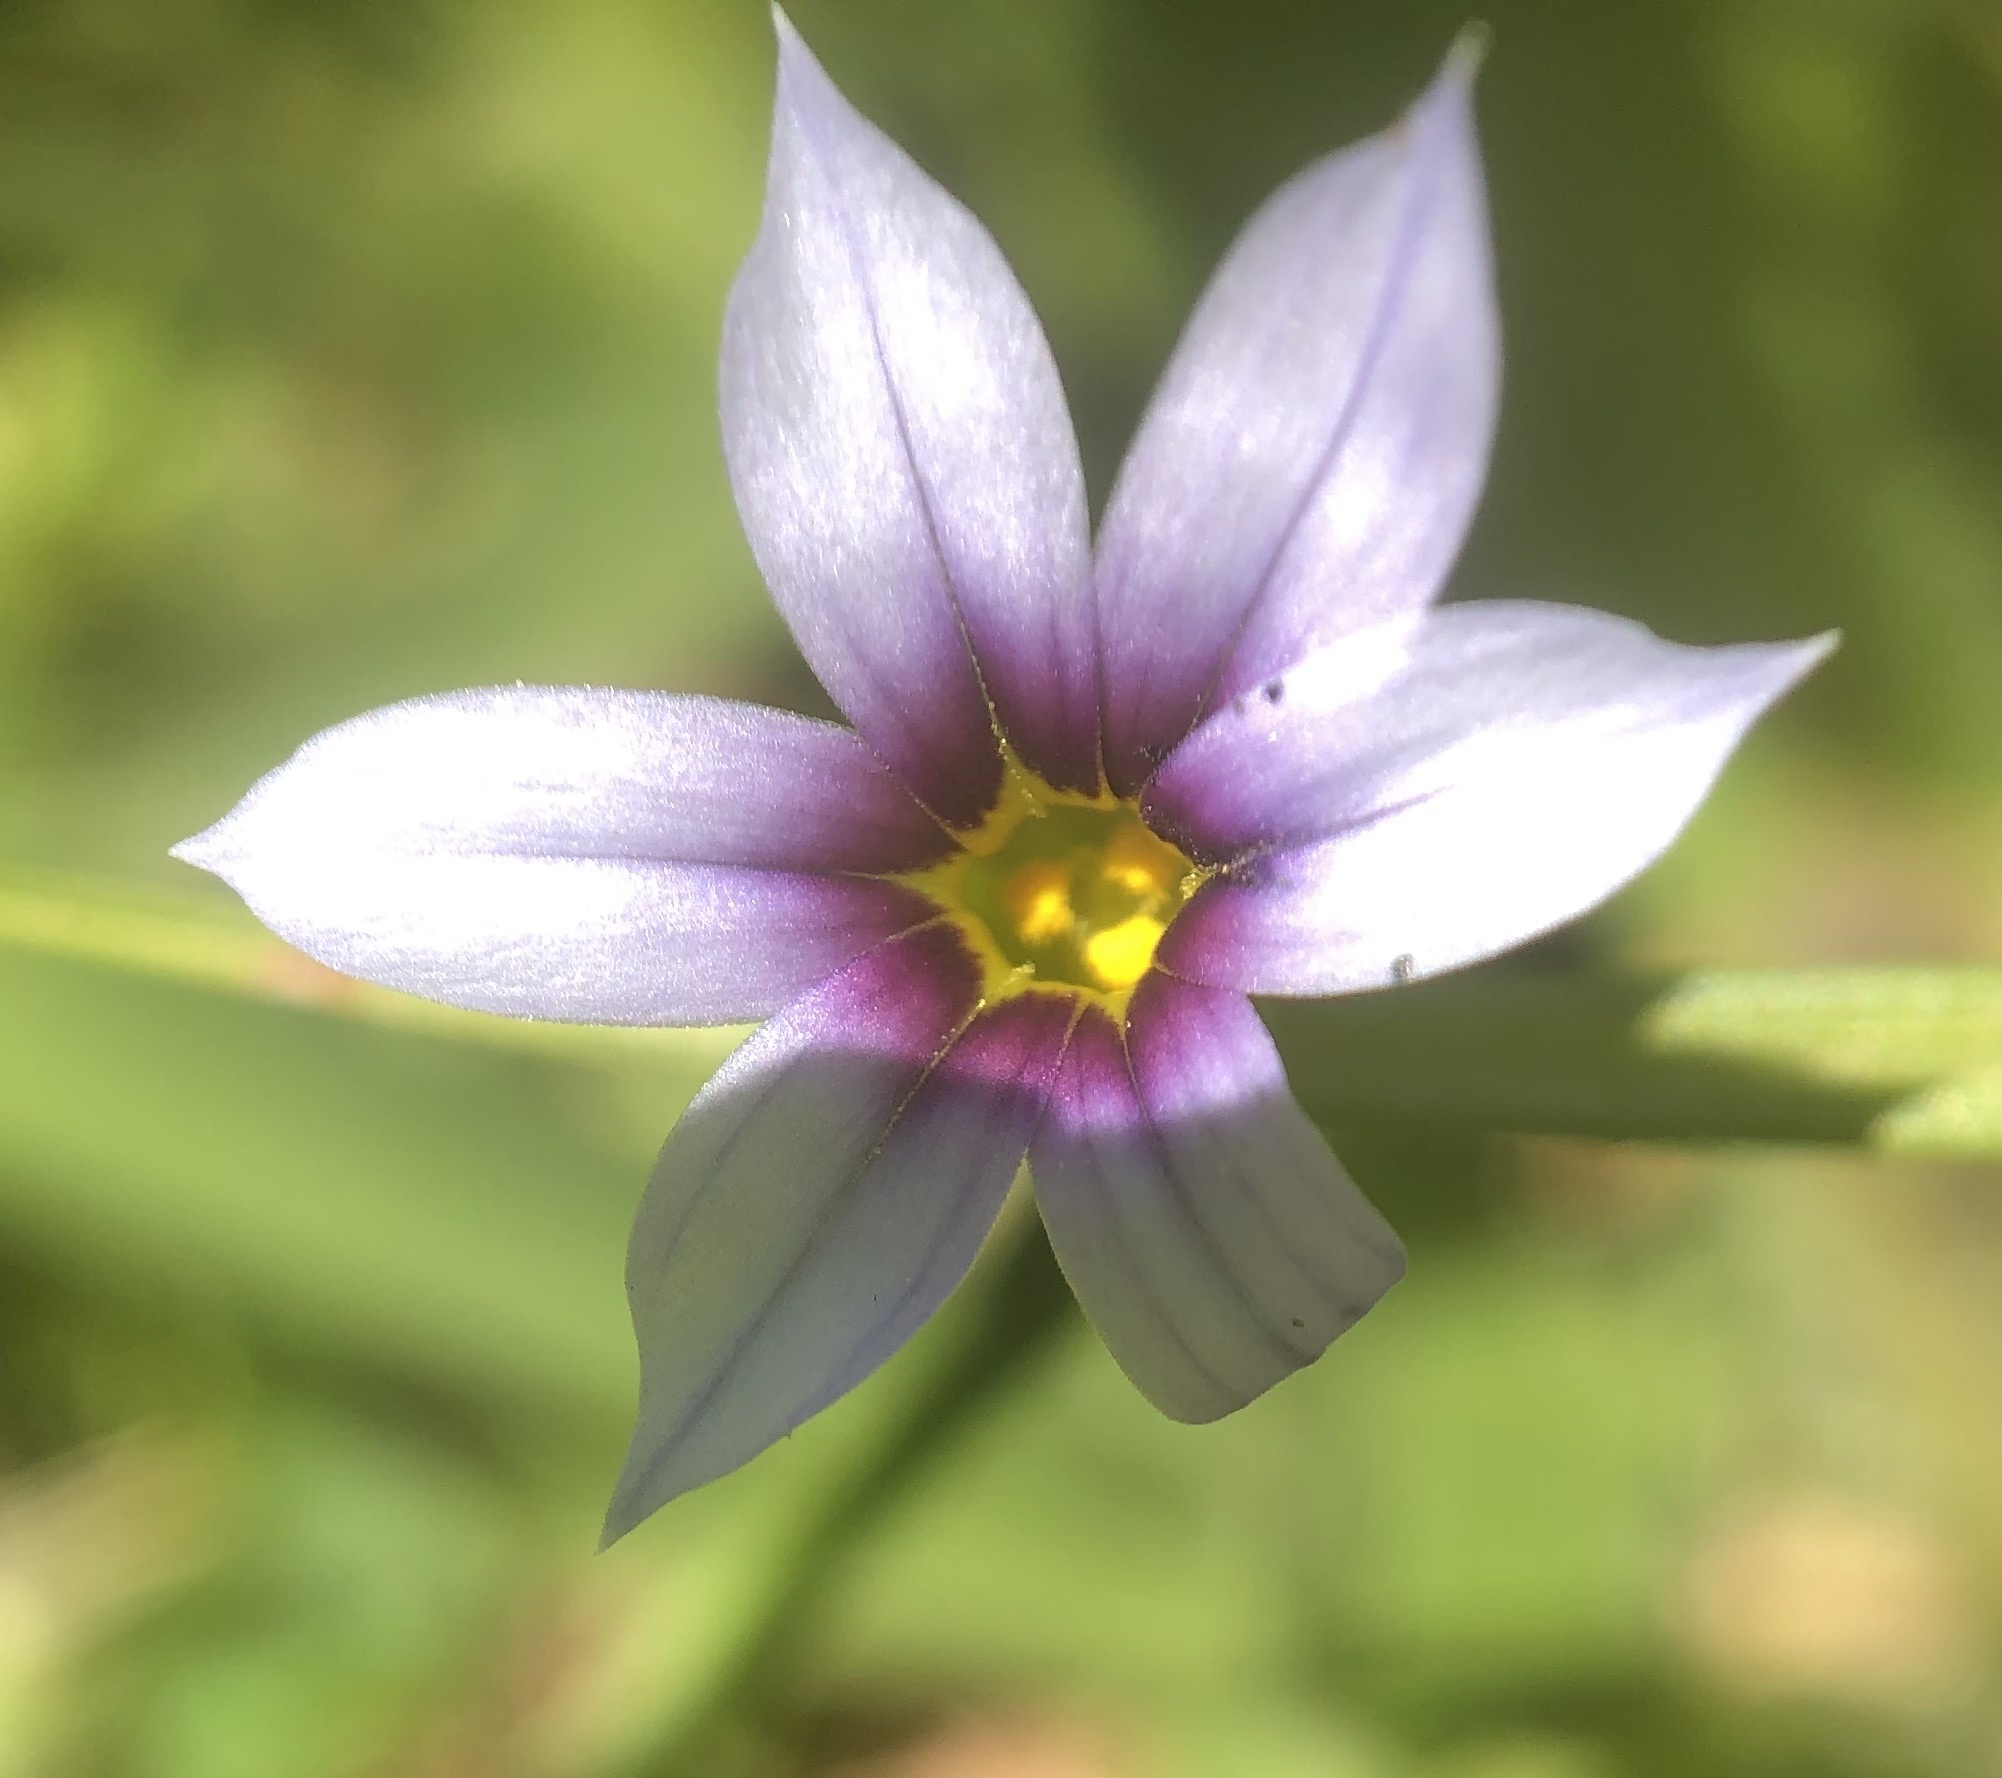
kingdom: Plantae
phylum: Tracheophyta
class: Liliopsida
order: Asparagales
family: Iridaceae
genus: Sisyrinchium
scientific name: Sisyrinchium micranthum
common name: Bermuda pigroot
